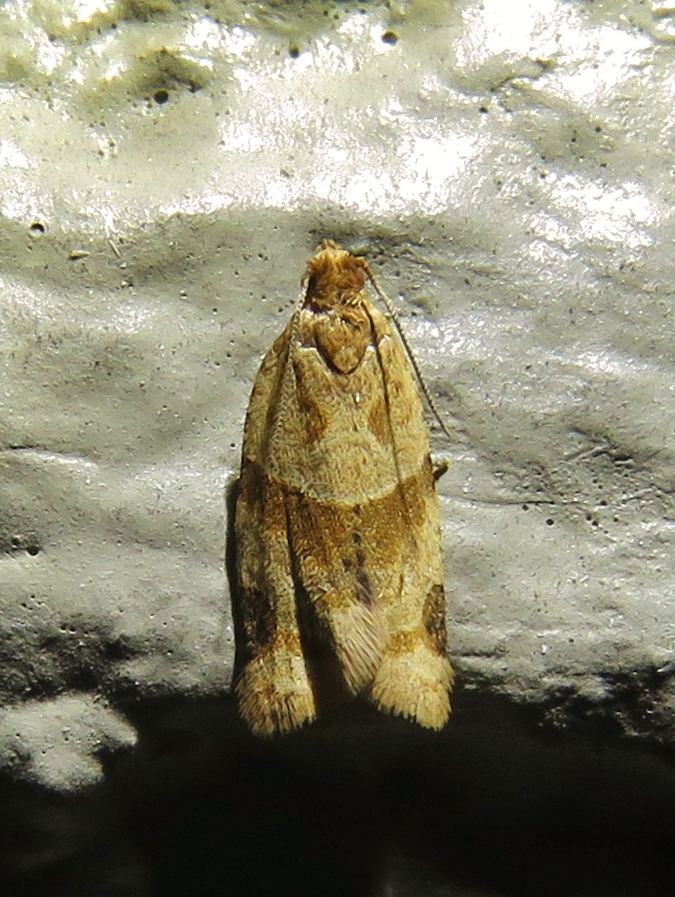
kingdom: Animalia
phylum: Arthropoda
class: Insecta
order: Lepidoptera
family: Tortricidae
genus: Clepsis
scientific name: Clepsis peritana
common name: Garden tortrix
